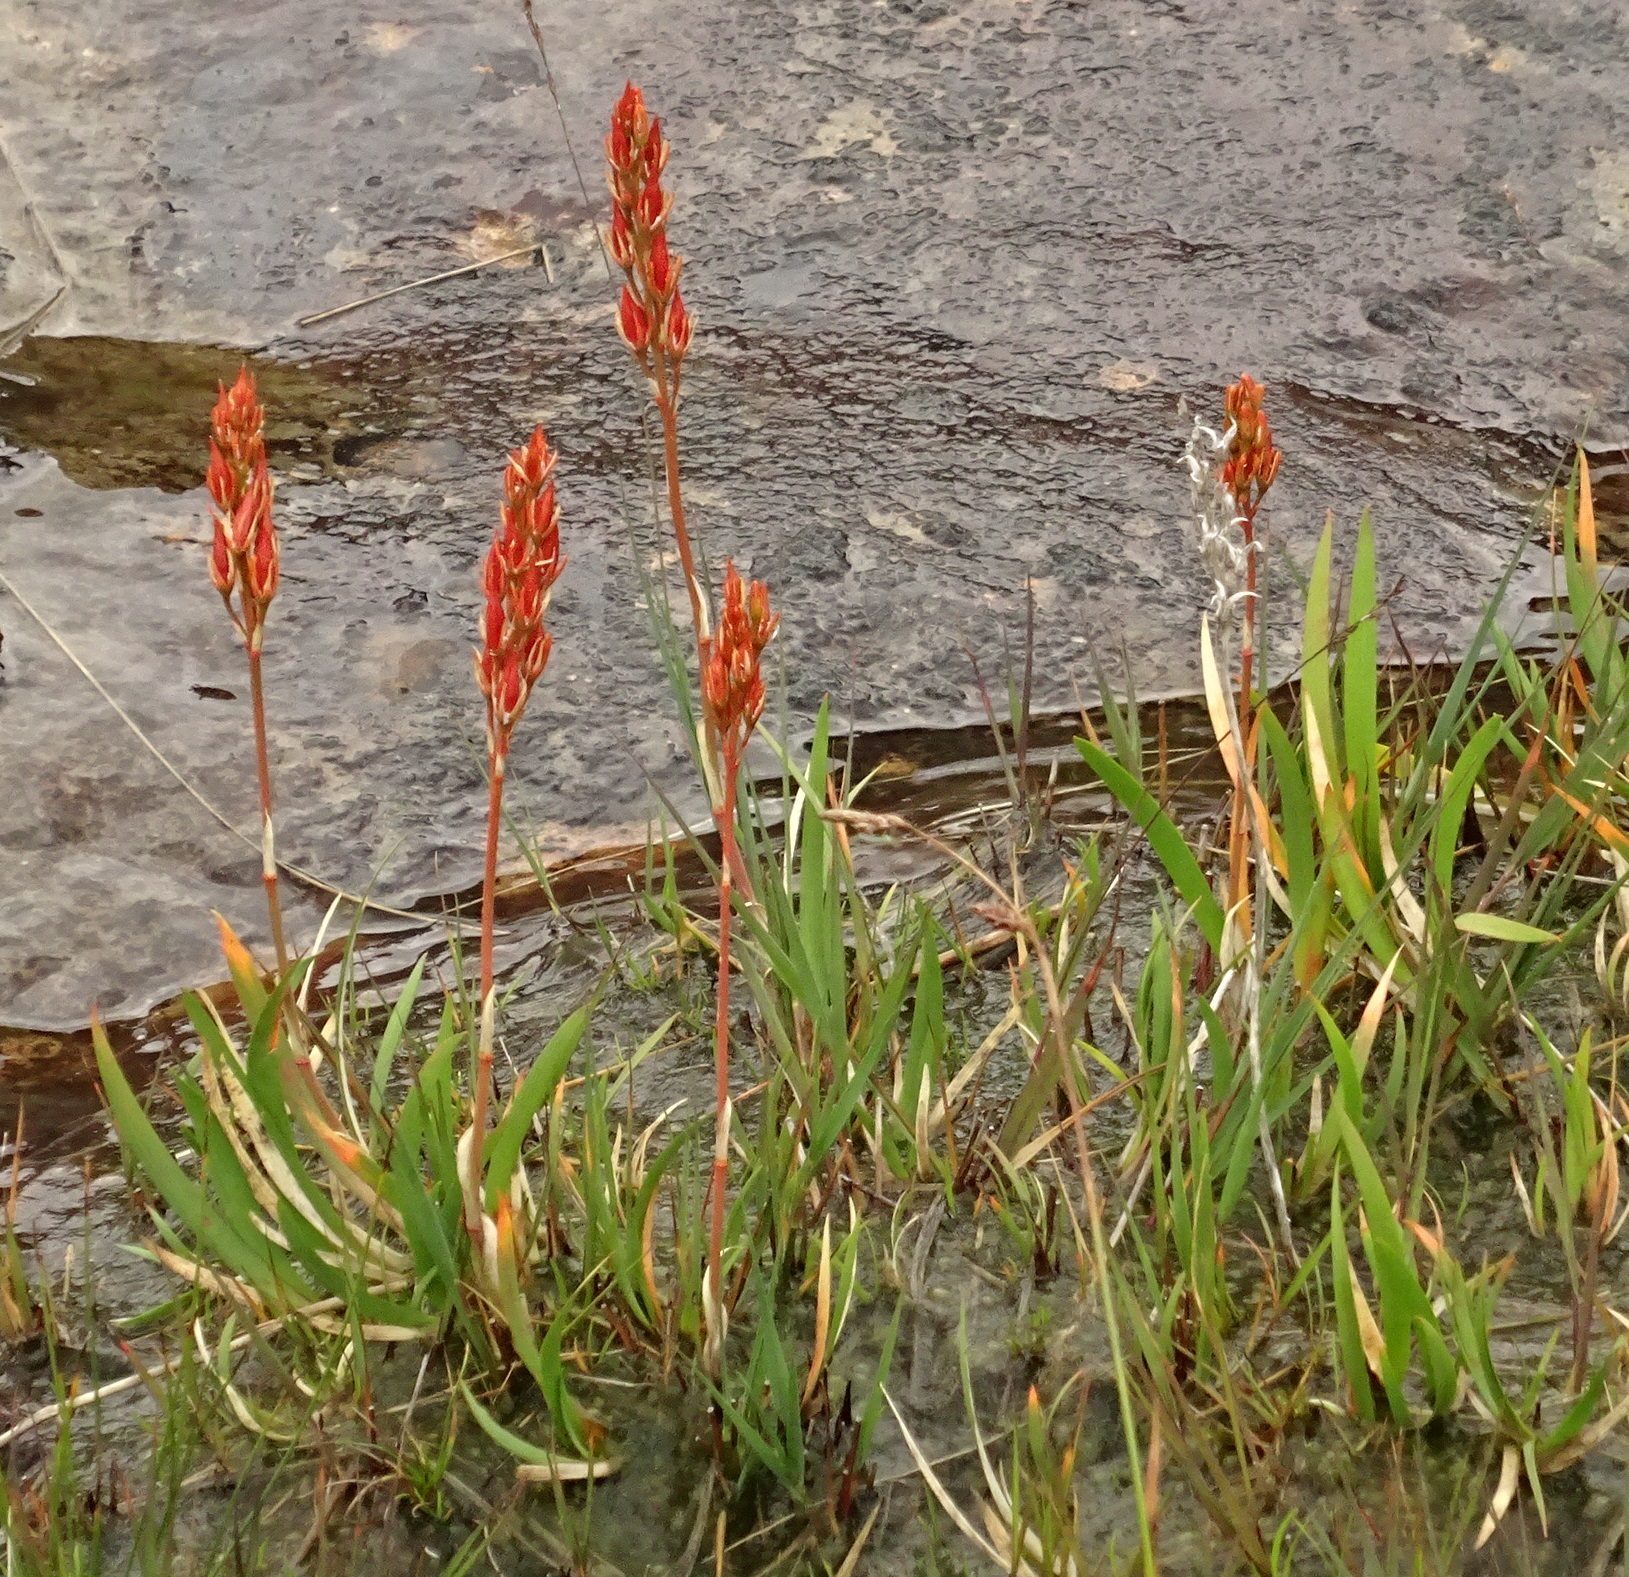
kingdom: Plantae
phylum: Tracheophyta
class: Liliopsida
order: Dioscoreales
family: Nartheciaceae
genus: Narthecium
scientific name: Narthecium ossifragum
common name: Bog asphodel
